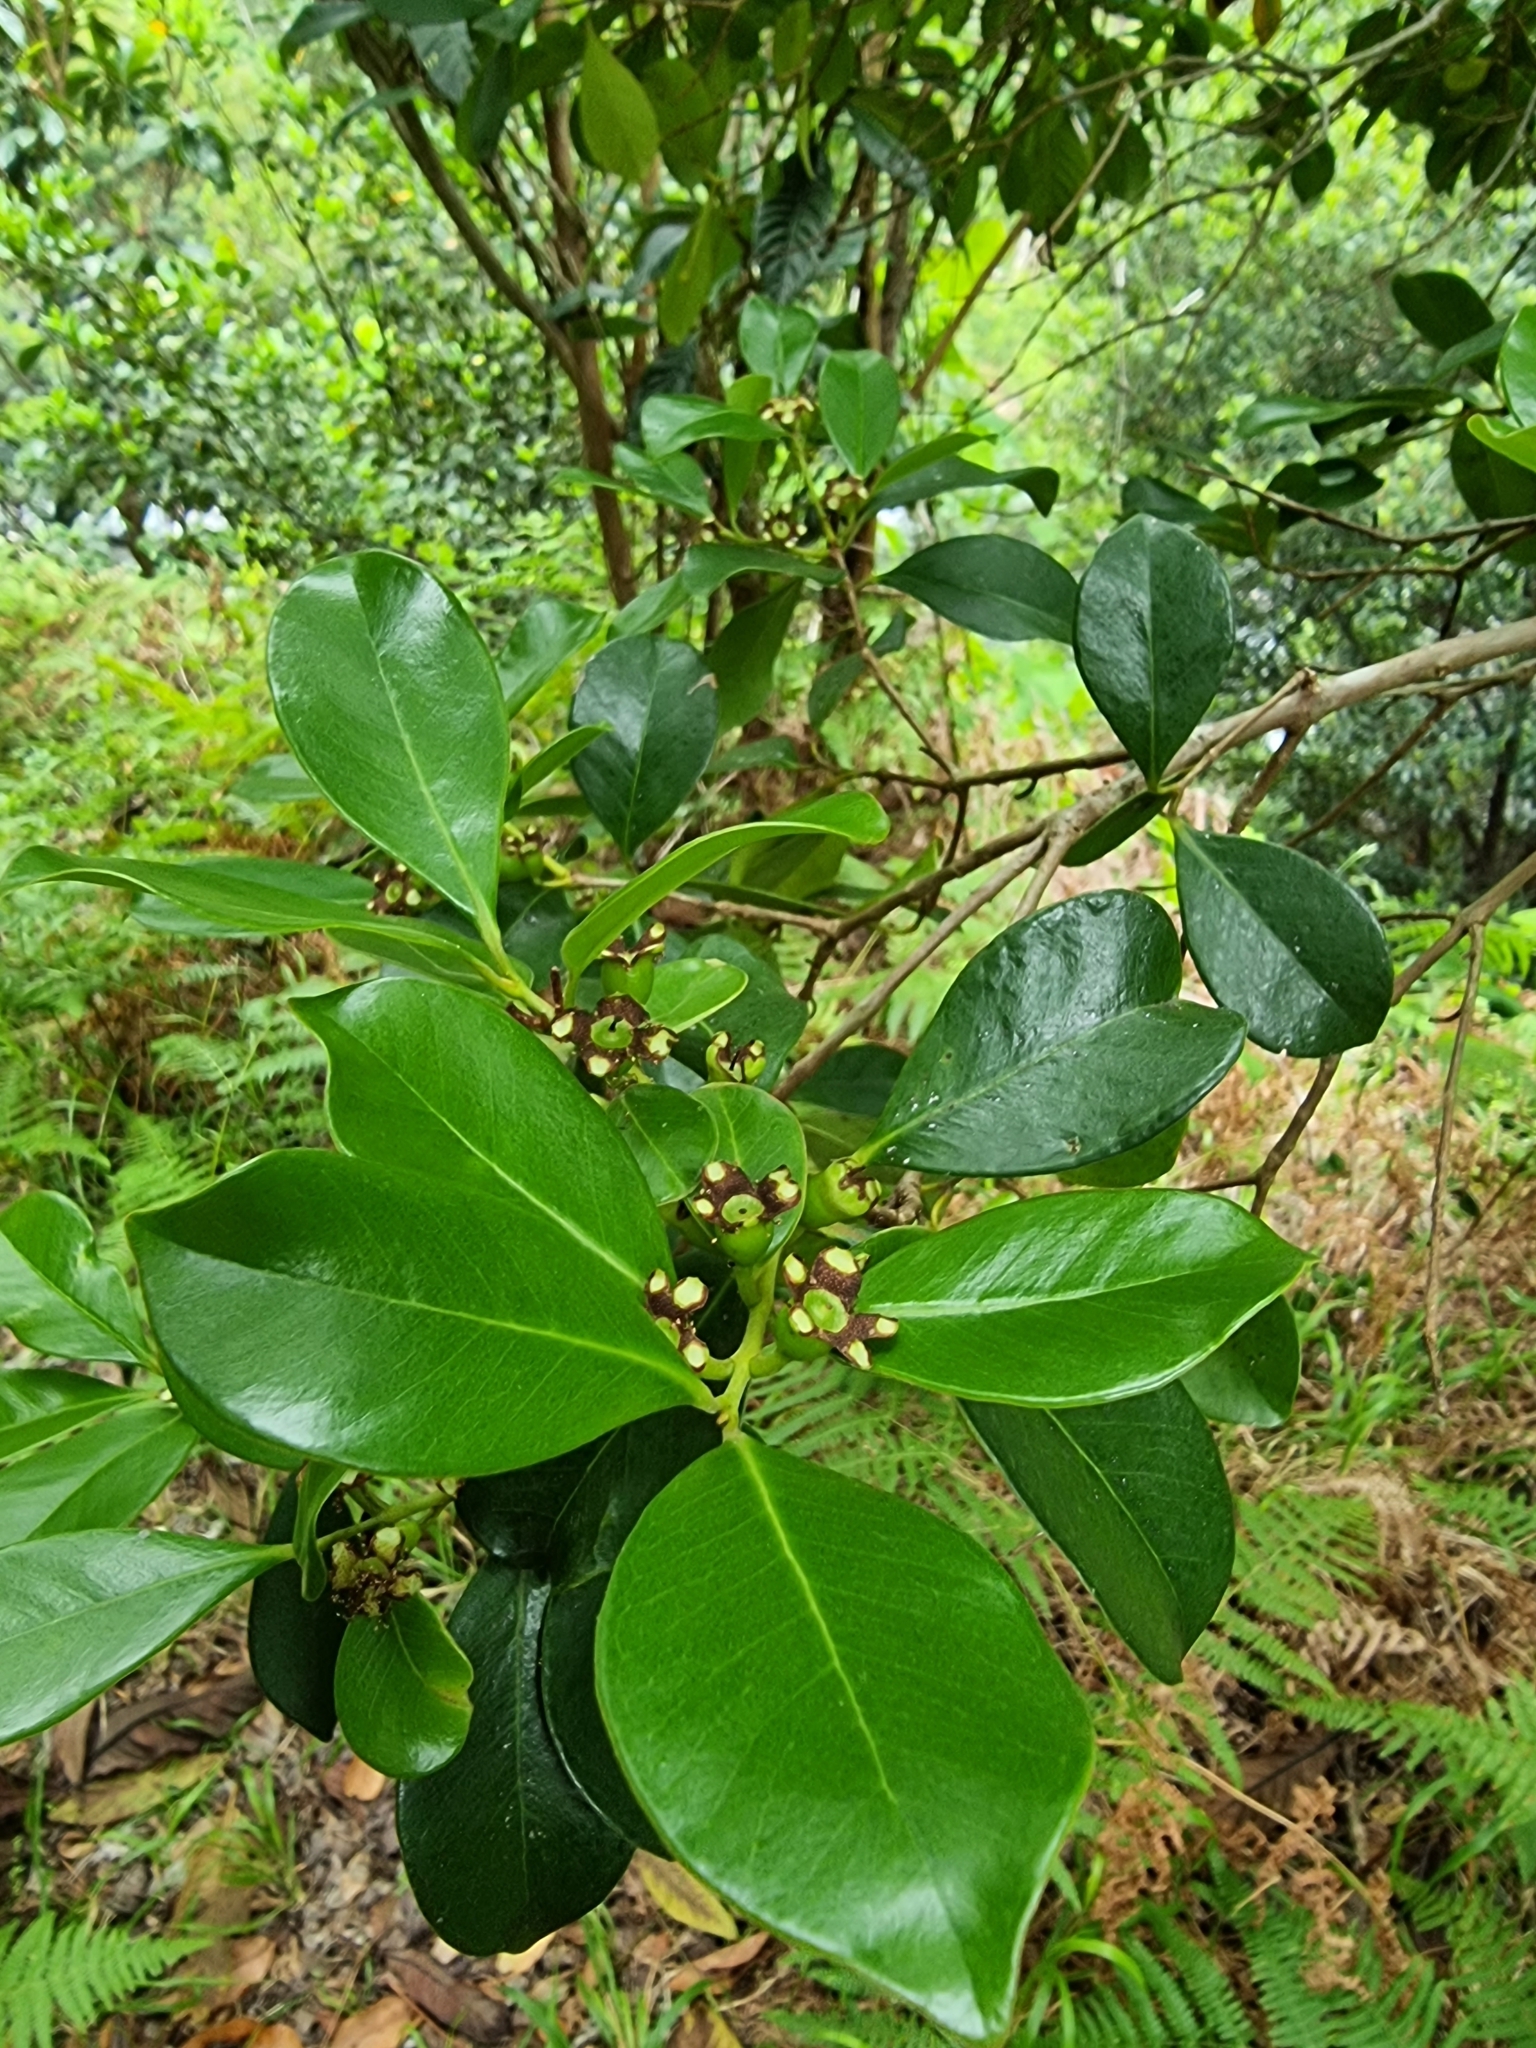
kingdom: Plantae
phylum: Tracheophyta
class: Magnoliopsida
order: Myrtales
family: Myrtaceae
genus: Psidium
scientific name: Psidium cattleianum
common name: Strawberry guava
